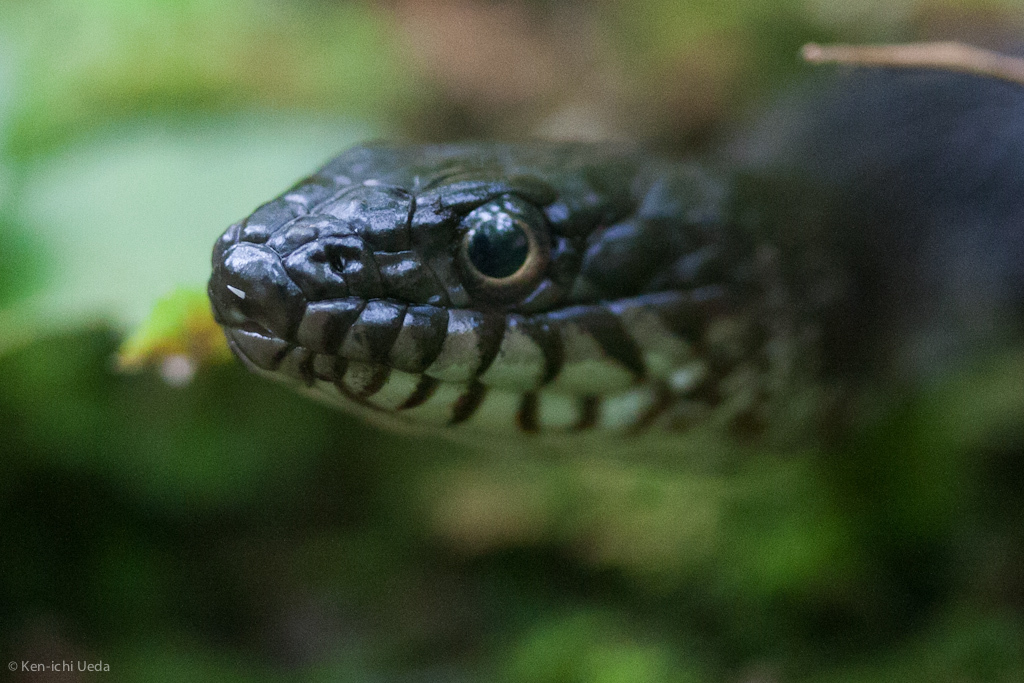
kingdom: Animalia
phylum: Chordata
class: Squamata
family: Colubridae
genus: Nerodia
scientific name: Nerodia sipedon
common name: Northern water snake
